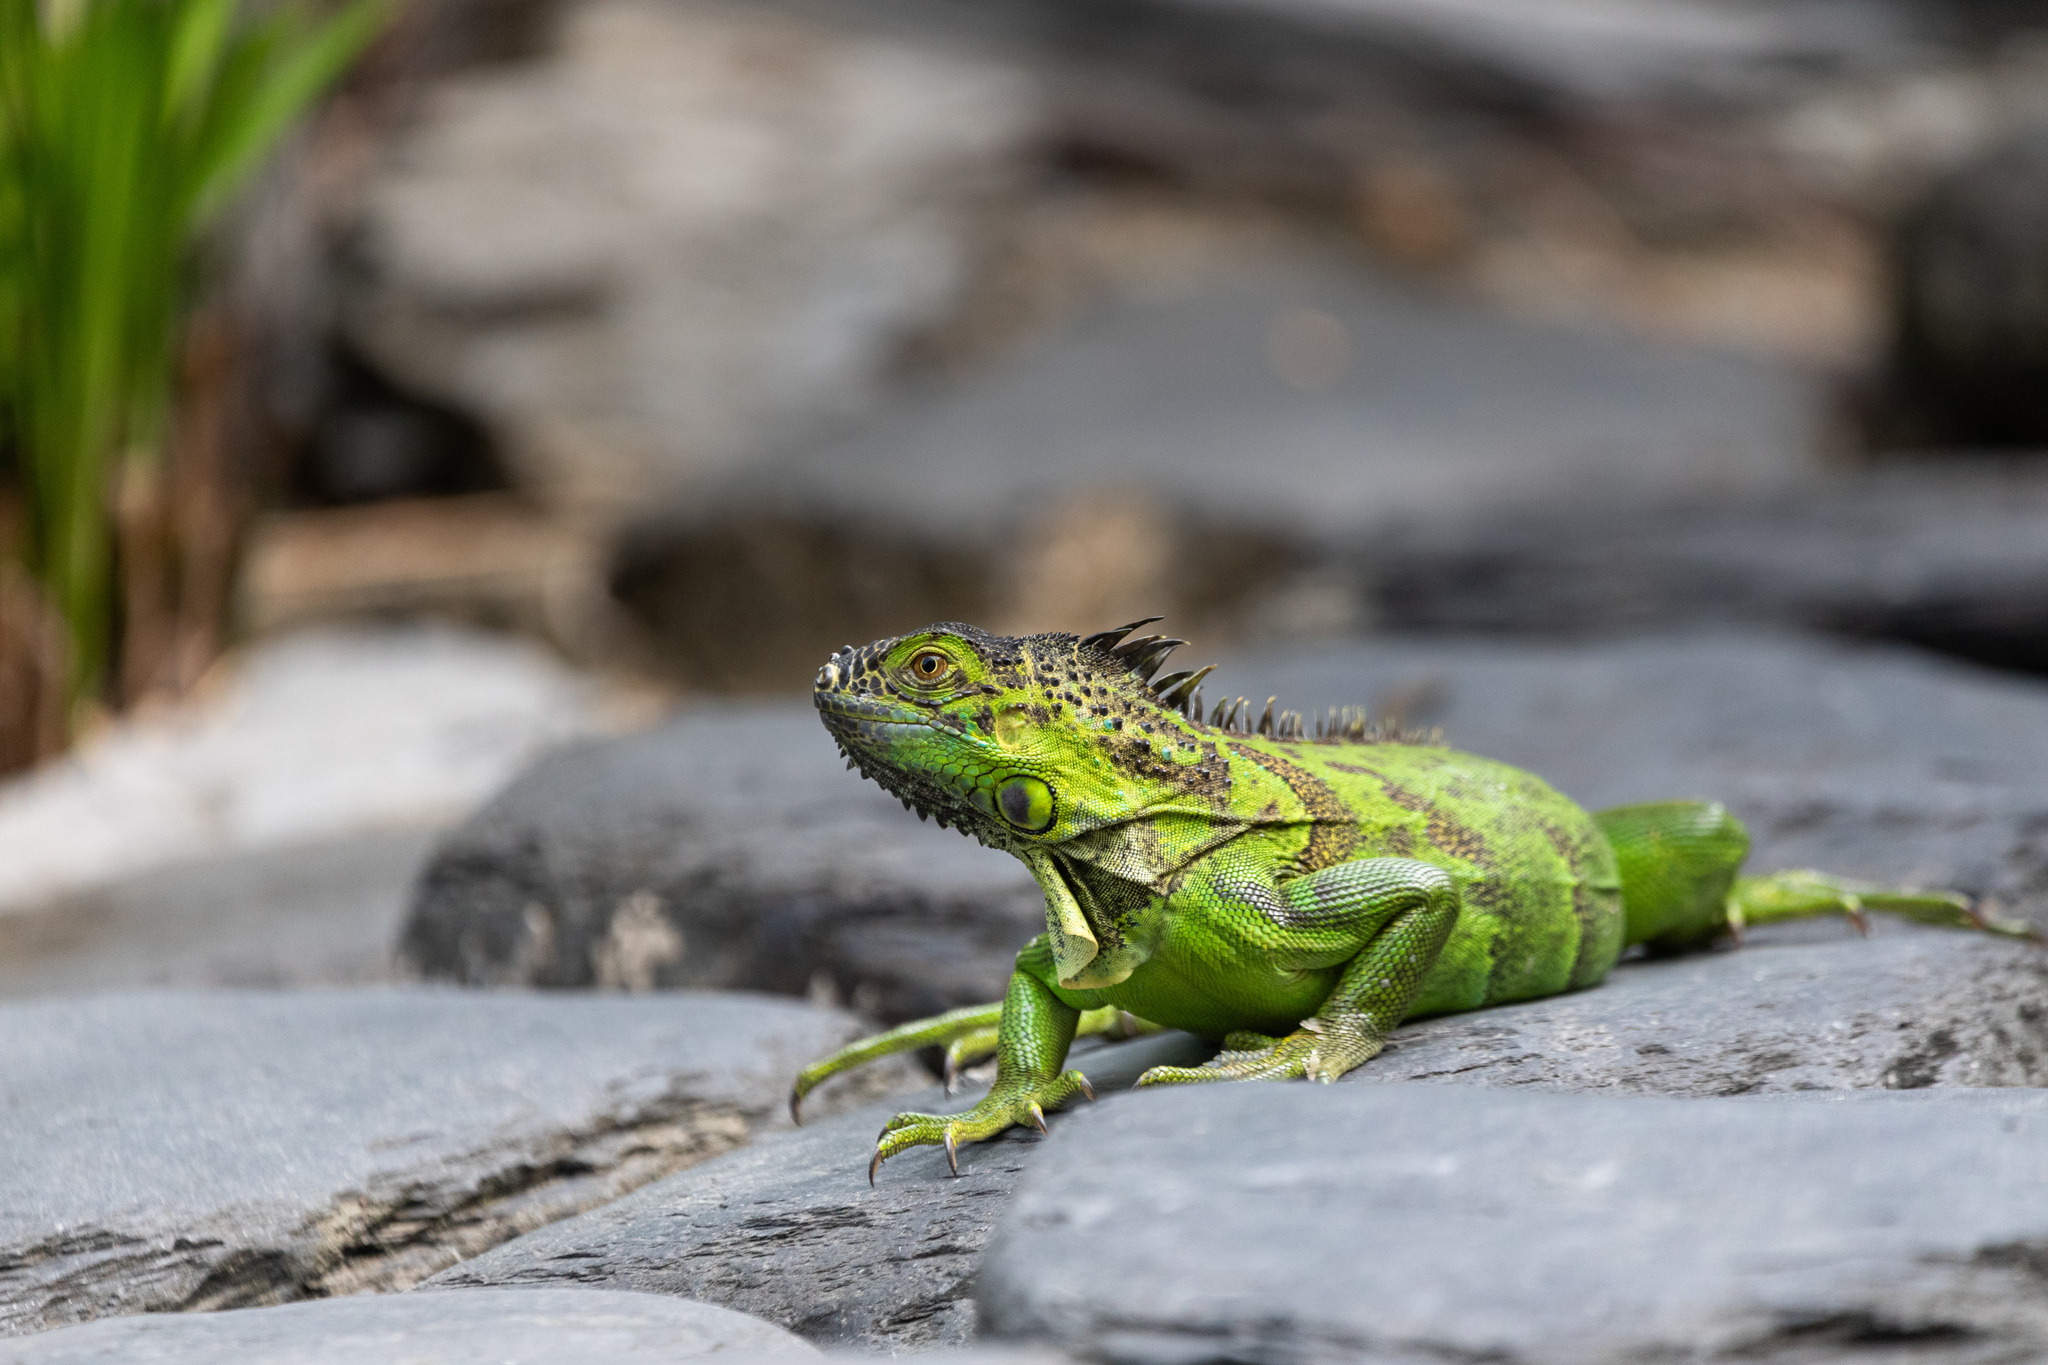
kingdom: Animalia
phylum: Chordata
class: Squamata
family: Iguanidae
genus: Iguana
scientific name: Iguana iguana
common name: Green iguana
